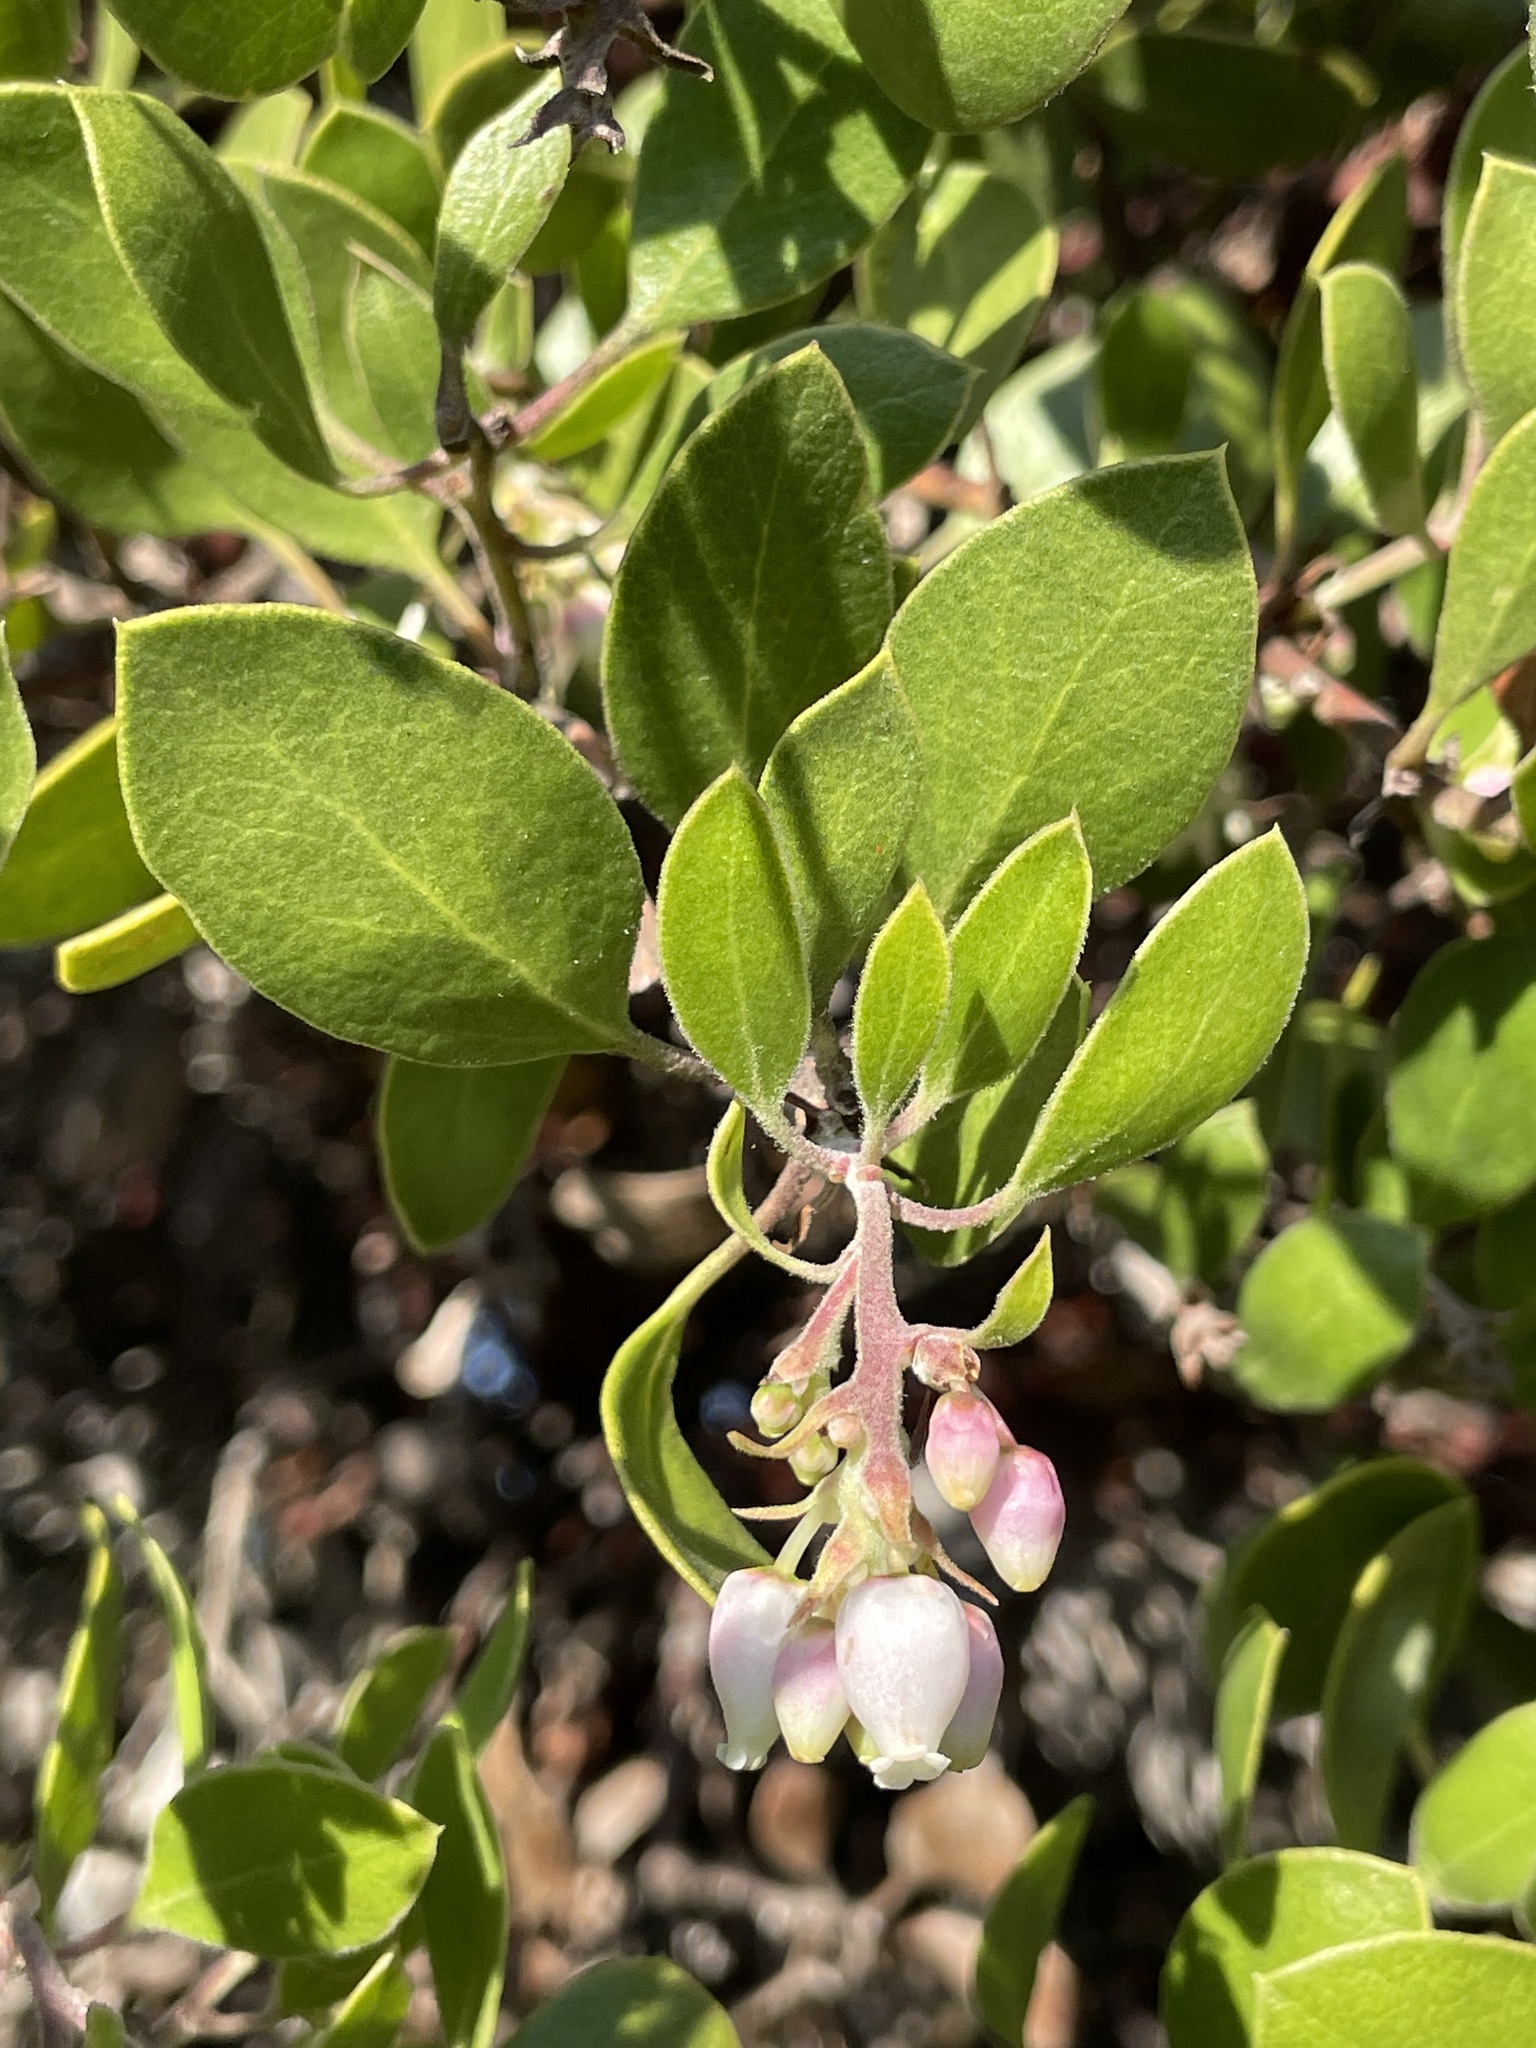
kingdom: Plantae
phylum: Tracheophyta
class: Magnoliopsida
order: Ericales
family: Ericaceae
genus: Arctostaphylos
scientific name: Arctostaphylos rudis
